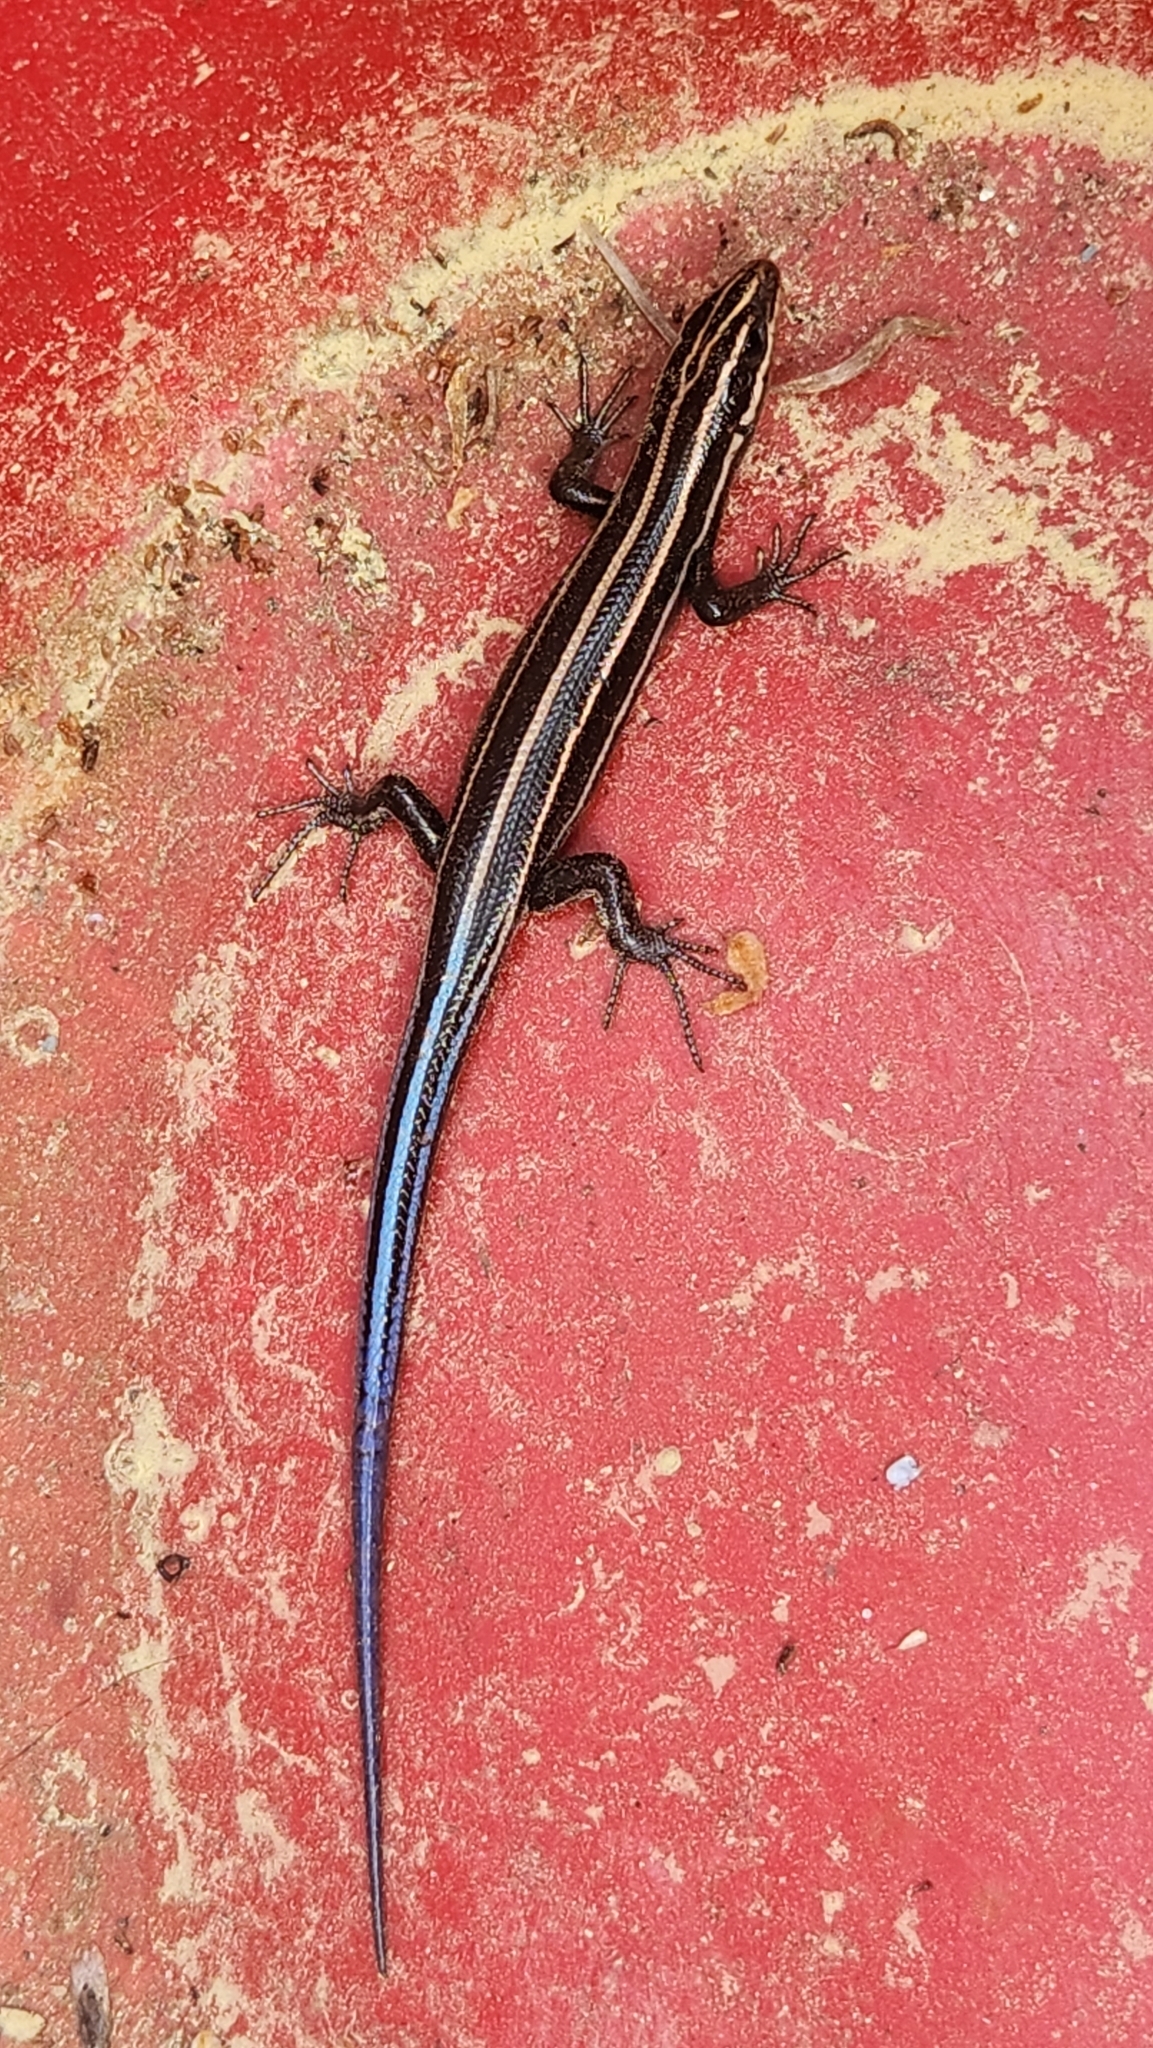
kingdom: Animalia
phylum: Chordata
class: Squamata
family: Scincidae
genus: Plestiodon
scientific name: Plestiodon fasciatus
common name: Five-lined skink
